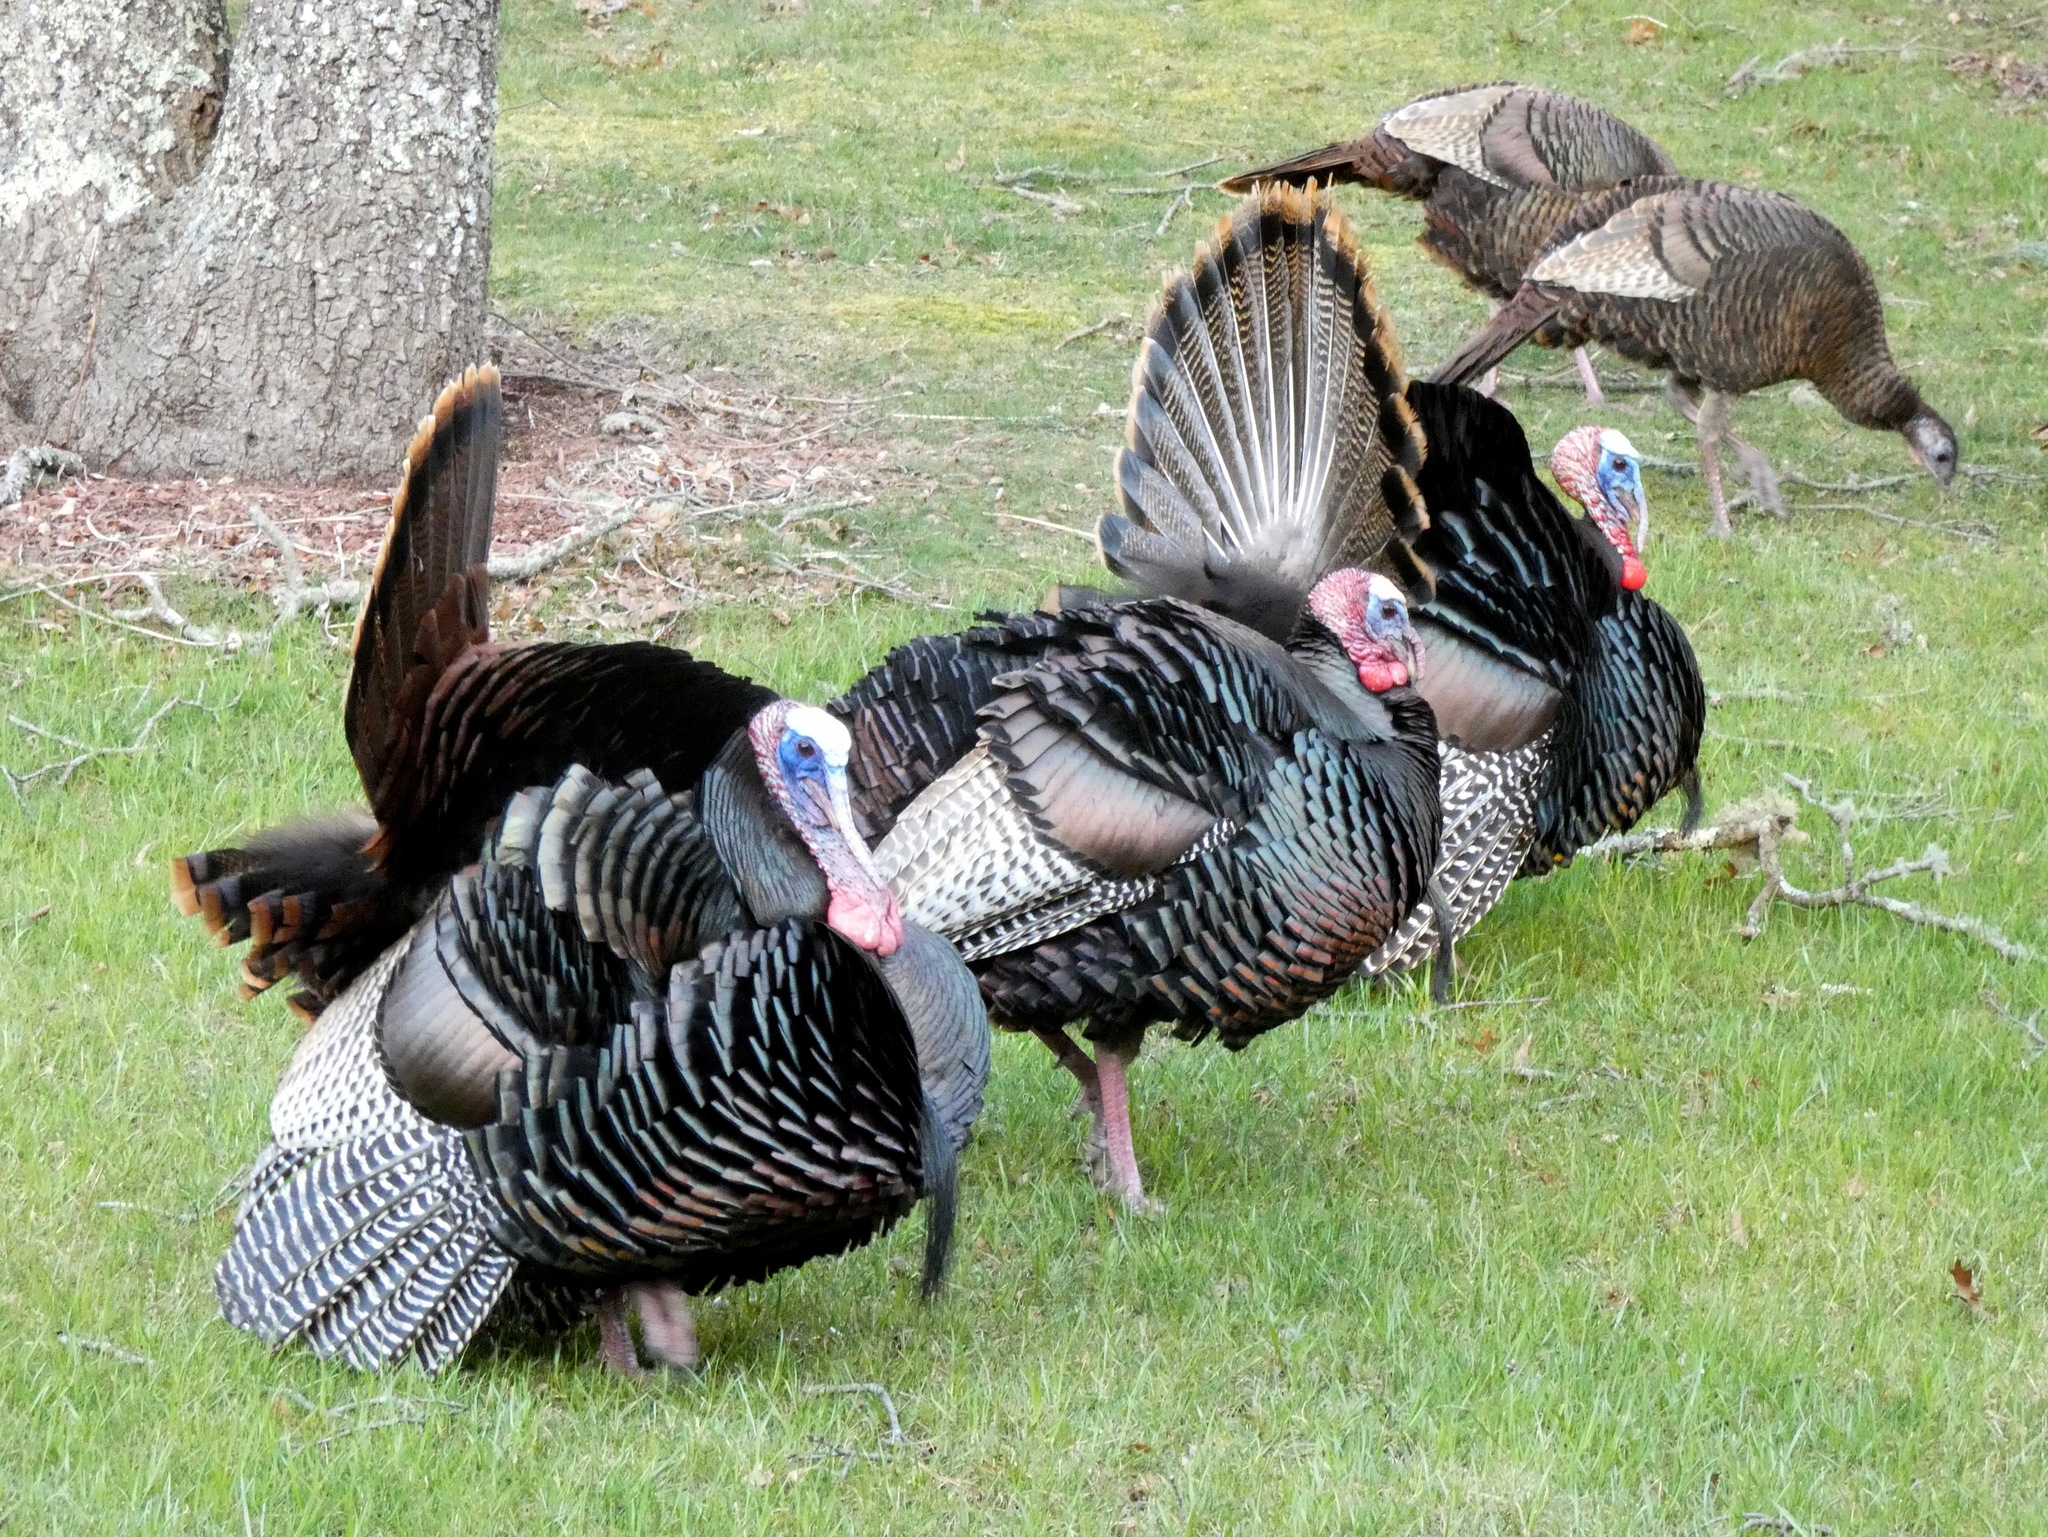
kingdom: Animalia
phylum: Chordata
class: Aves
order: Galliformes
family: Phasianidae
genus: Meleagris
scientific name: Meleagris gallopavo
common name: Wild turkey
